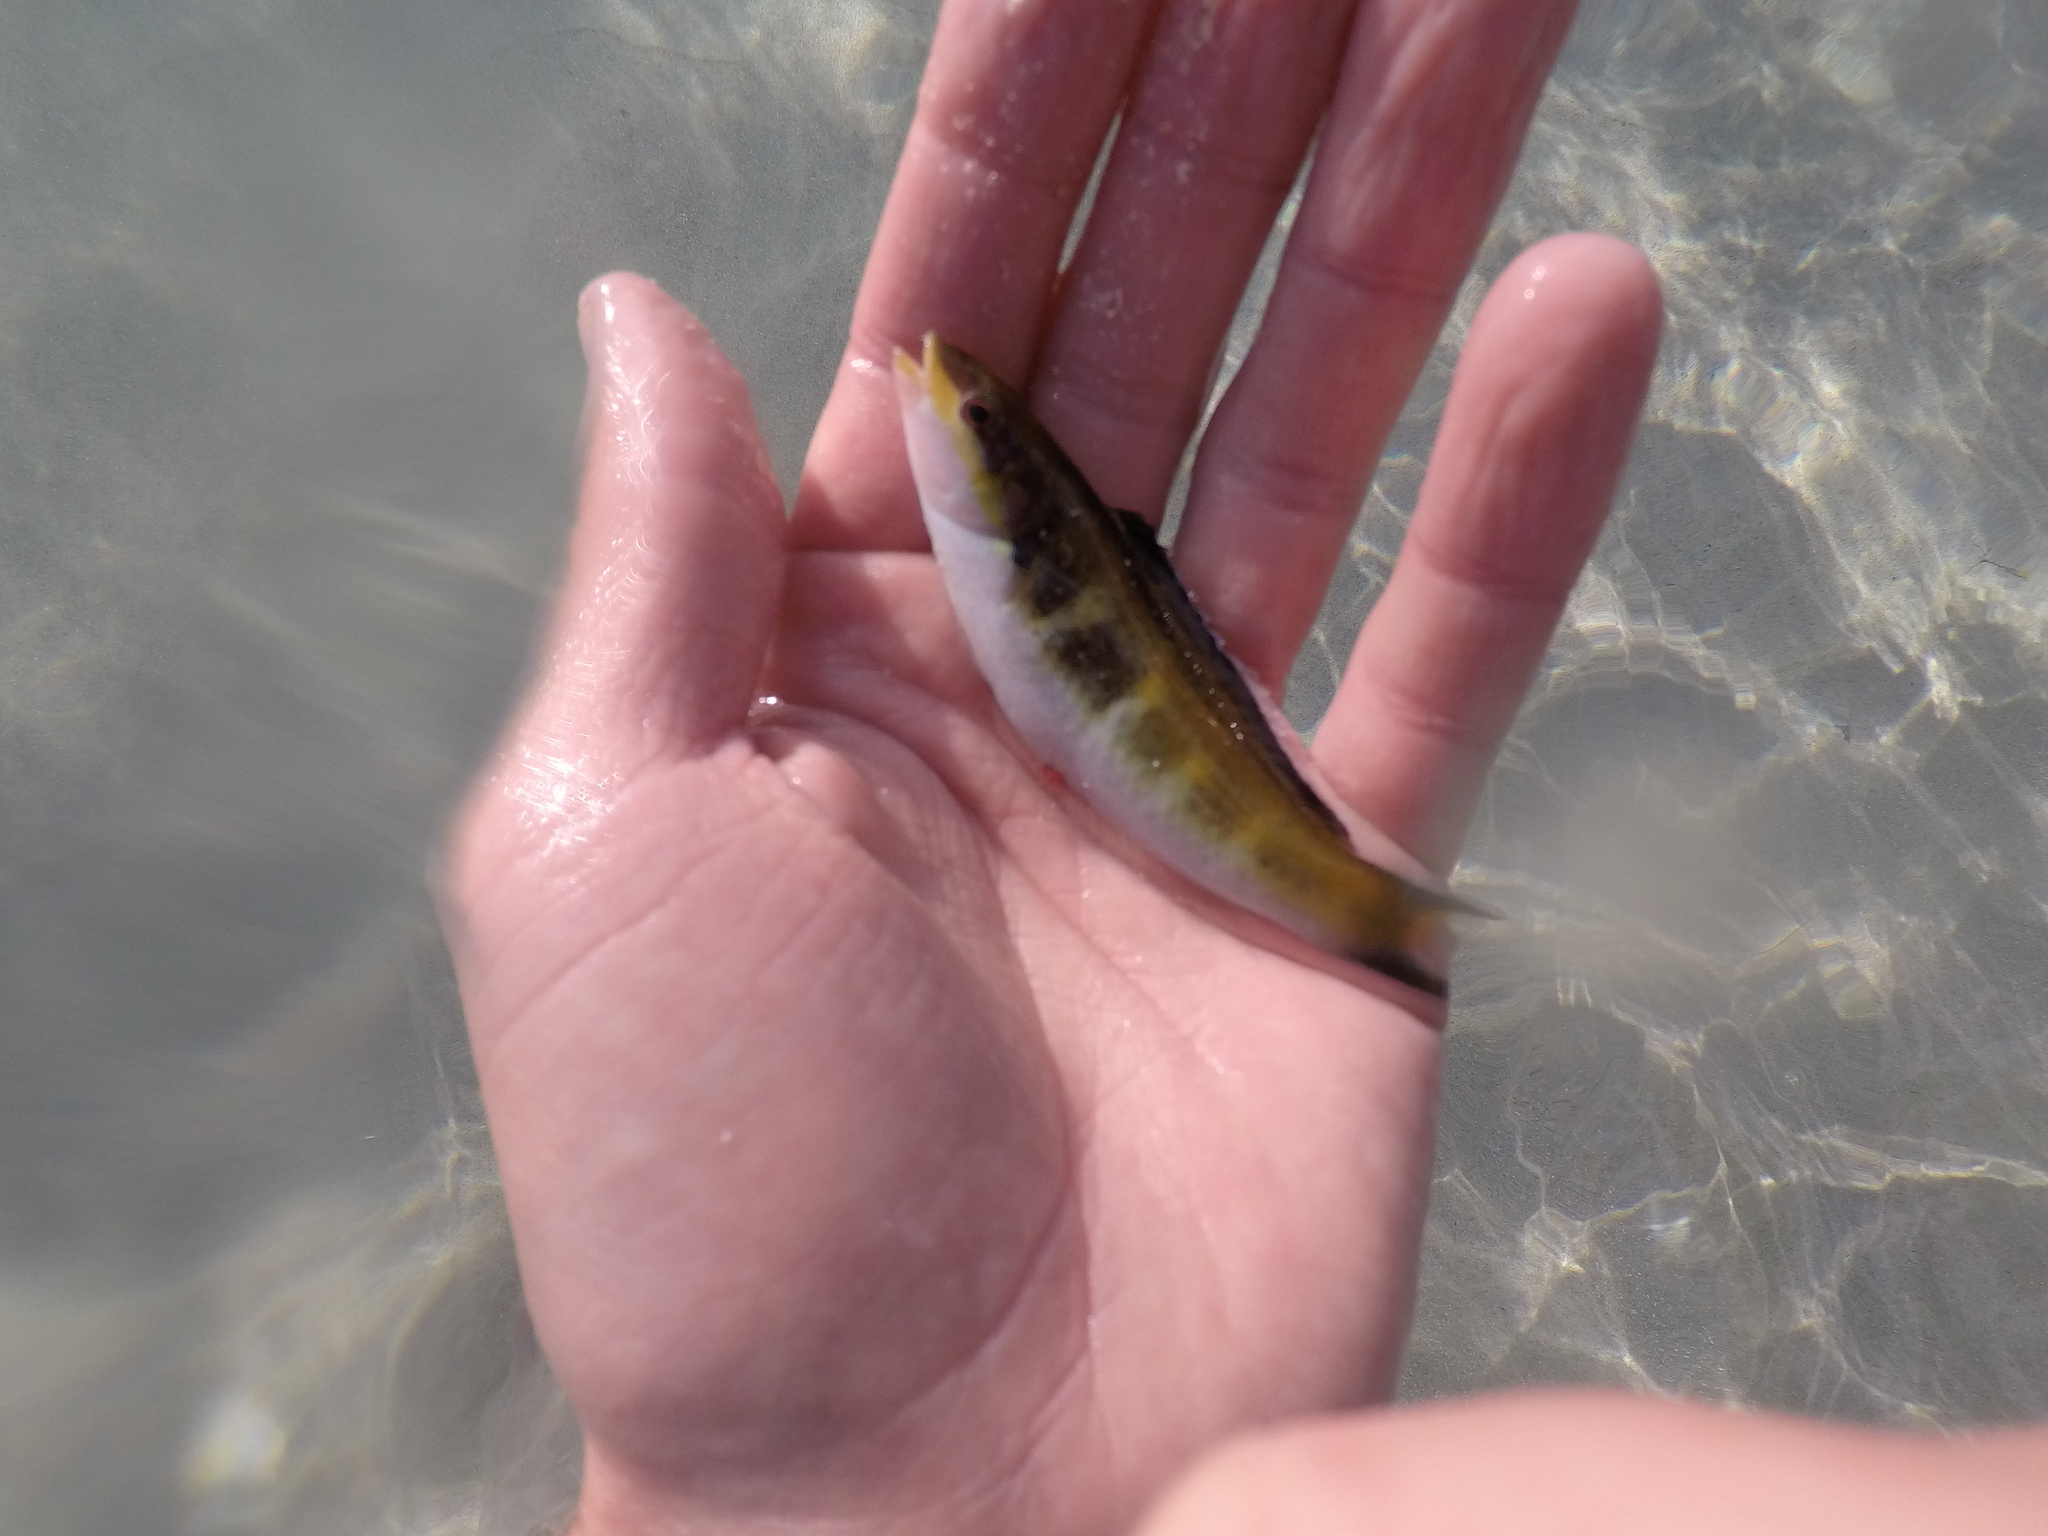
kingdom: Animalia
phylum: Chordata
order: Perciformes
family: Labridae
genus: Thalassoma
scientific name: Thalassoma bifasciatum
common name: Bluehead wrasse
